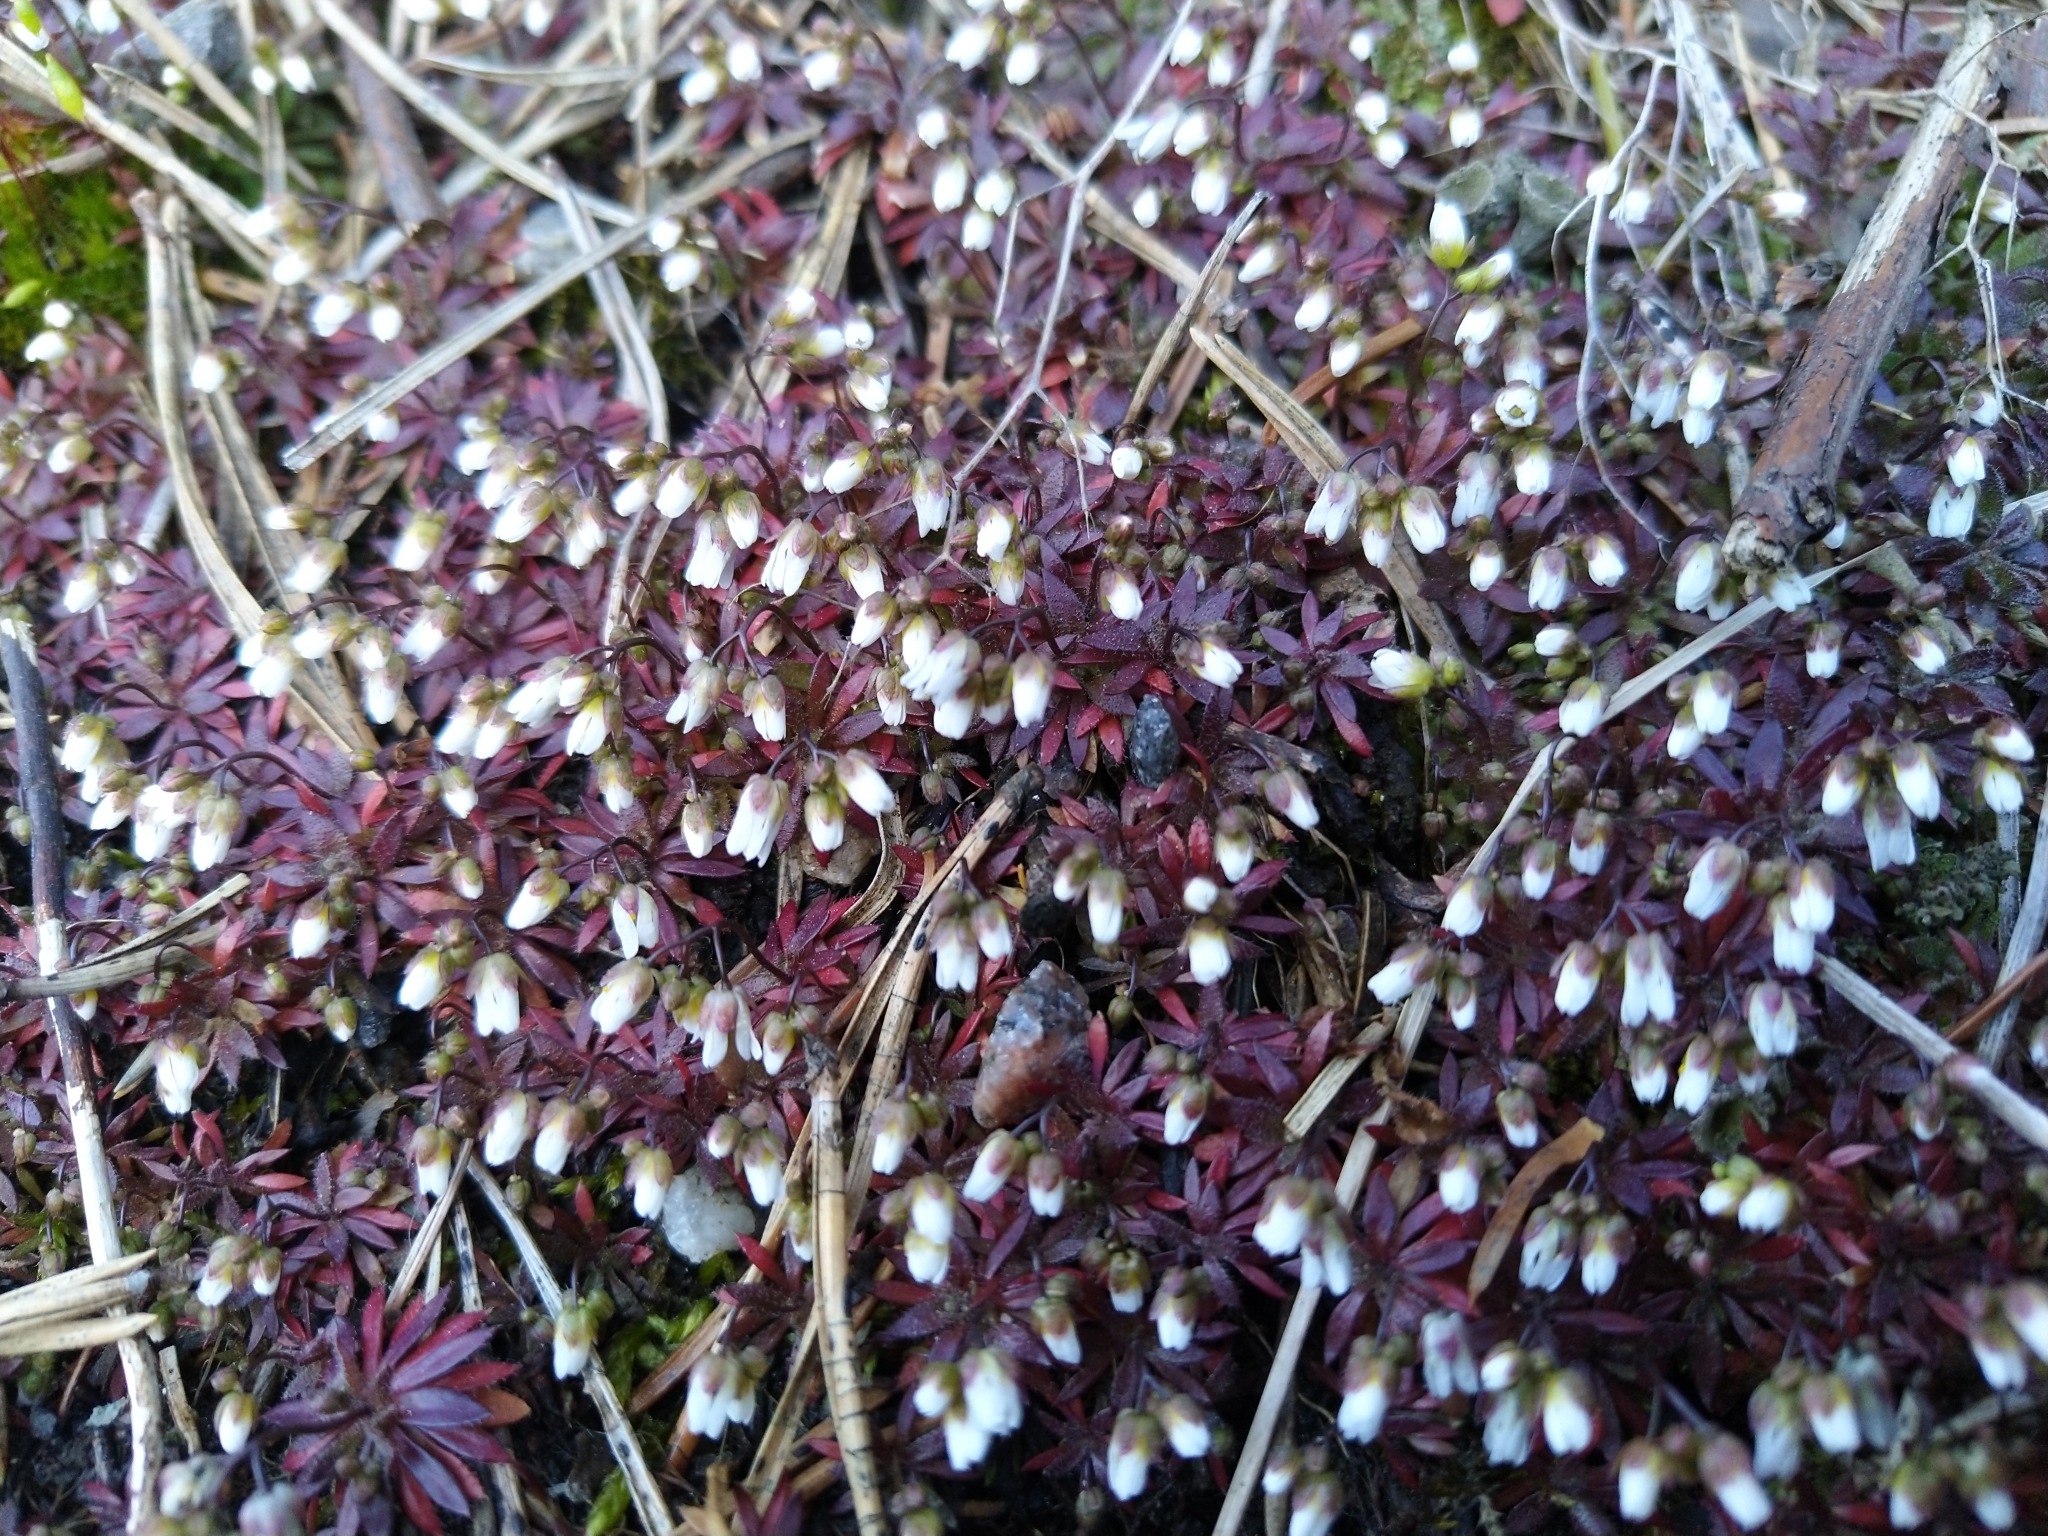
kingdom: Plantae
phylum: Tracheophyta
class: Magnoliopsida
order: Brassicales
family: Brassicaceae
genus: Draba
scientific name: Draba verna
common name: Spring draba
